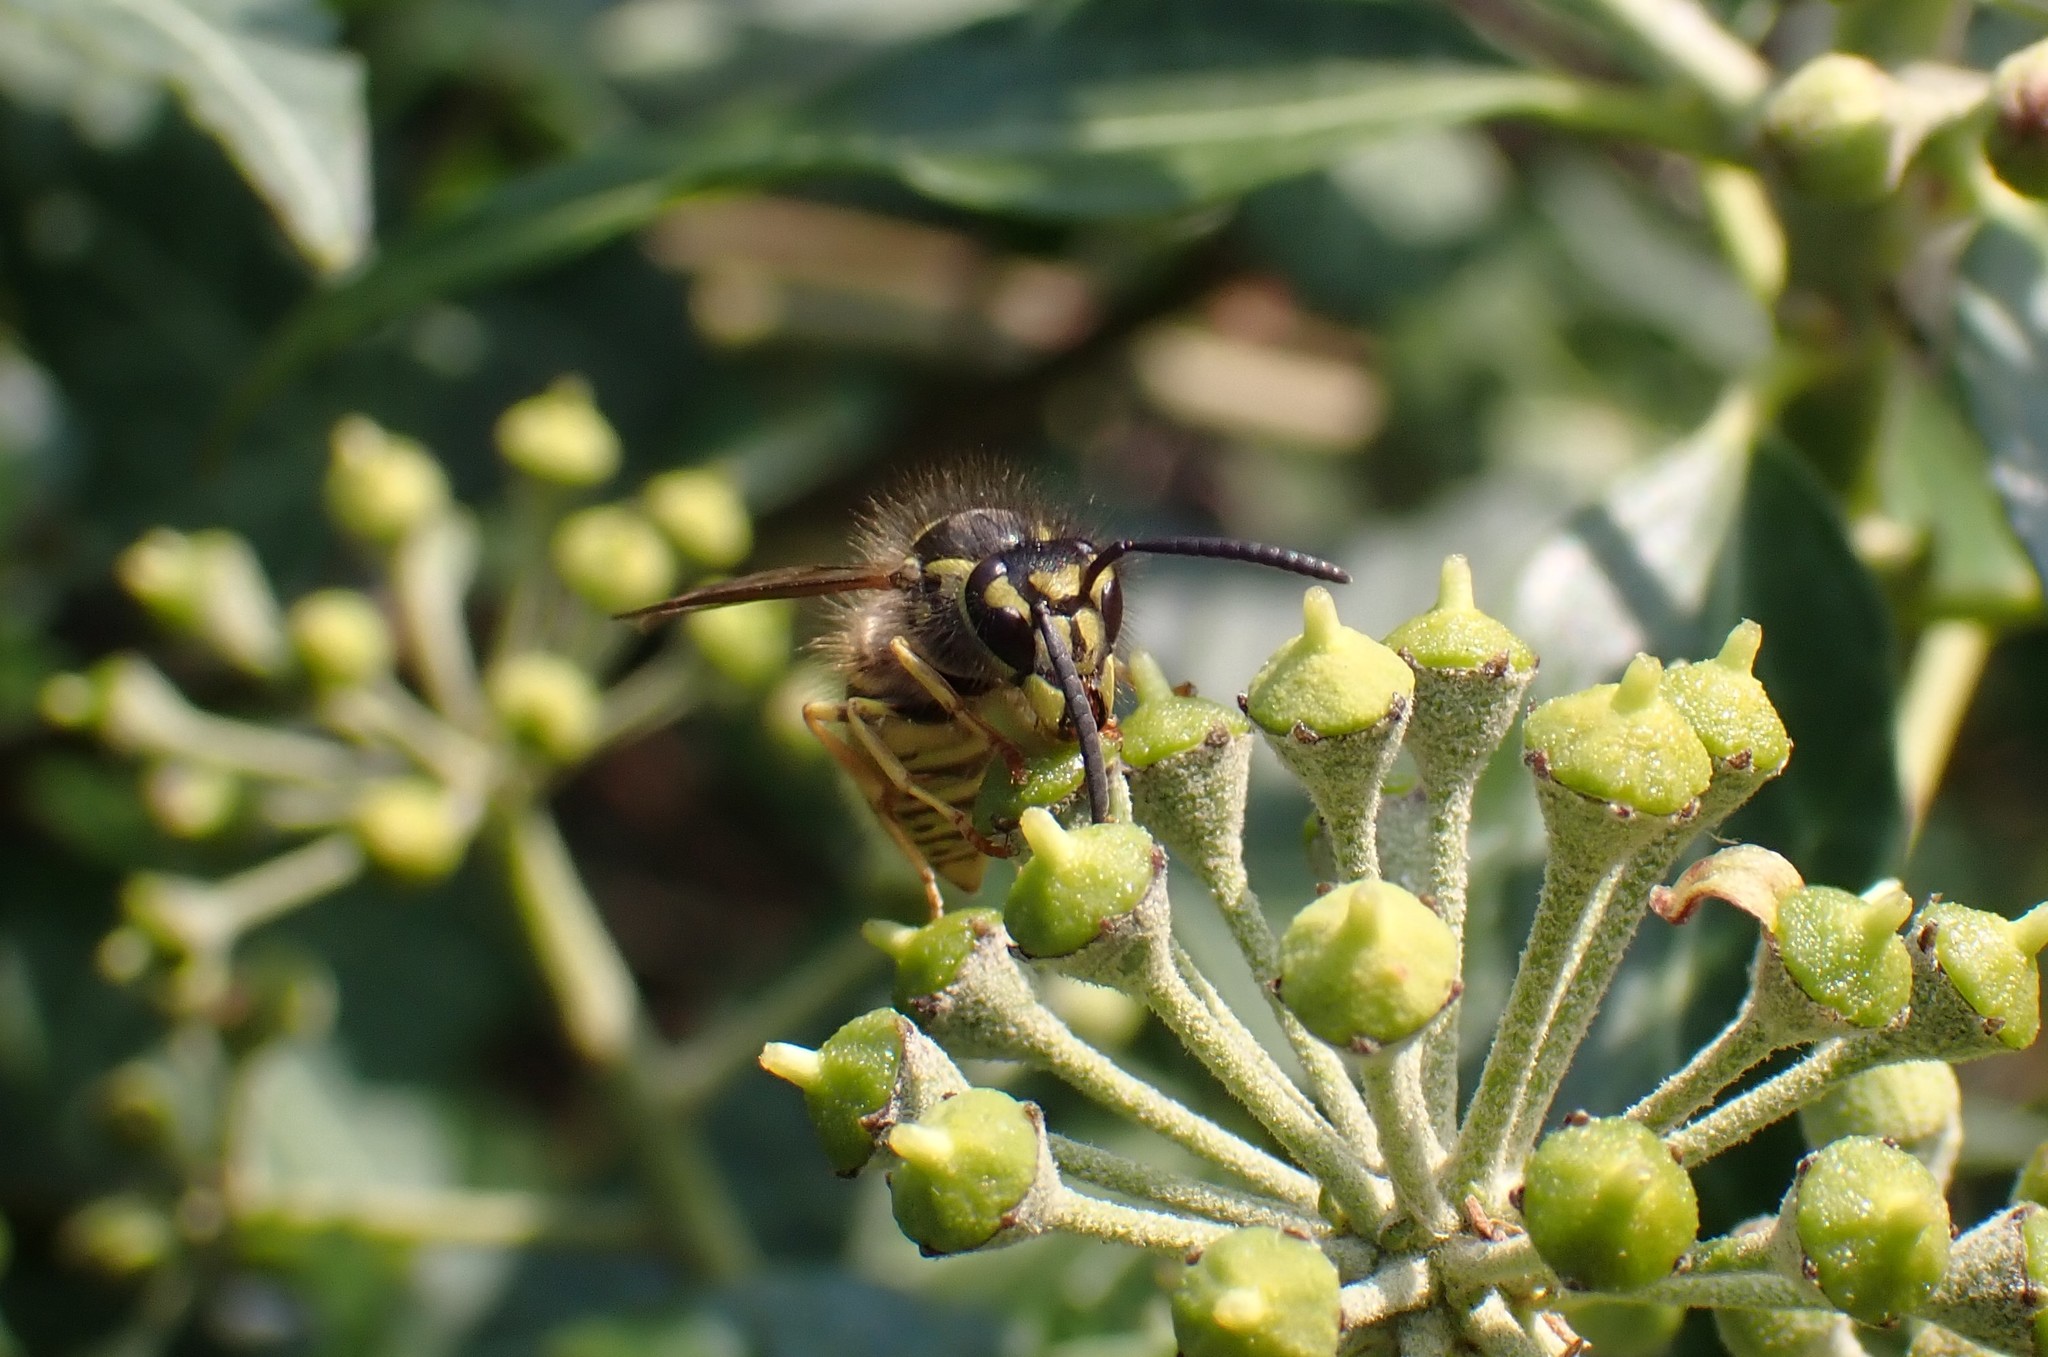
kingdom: Animalia
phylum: Arthropoda
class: Insecta
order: Hymenoptera
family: Vespidae
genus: Vespula
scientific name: Vespula vulgaris
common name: Common wasp
